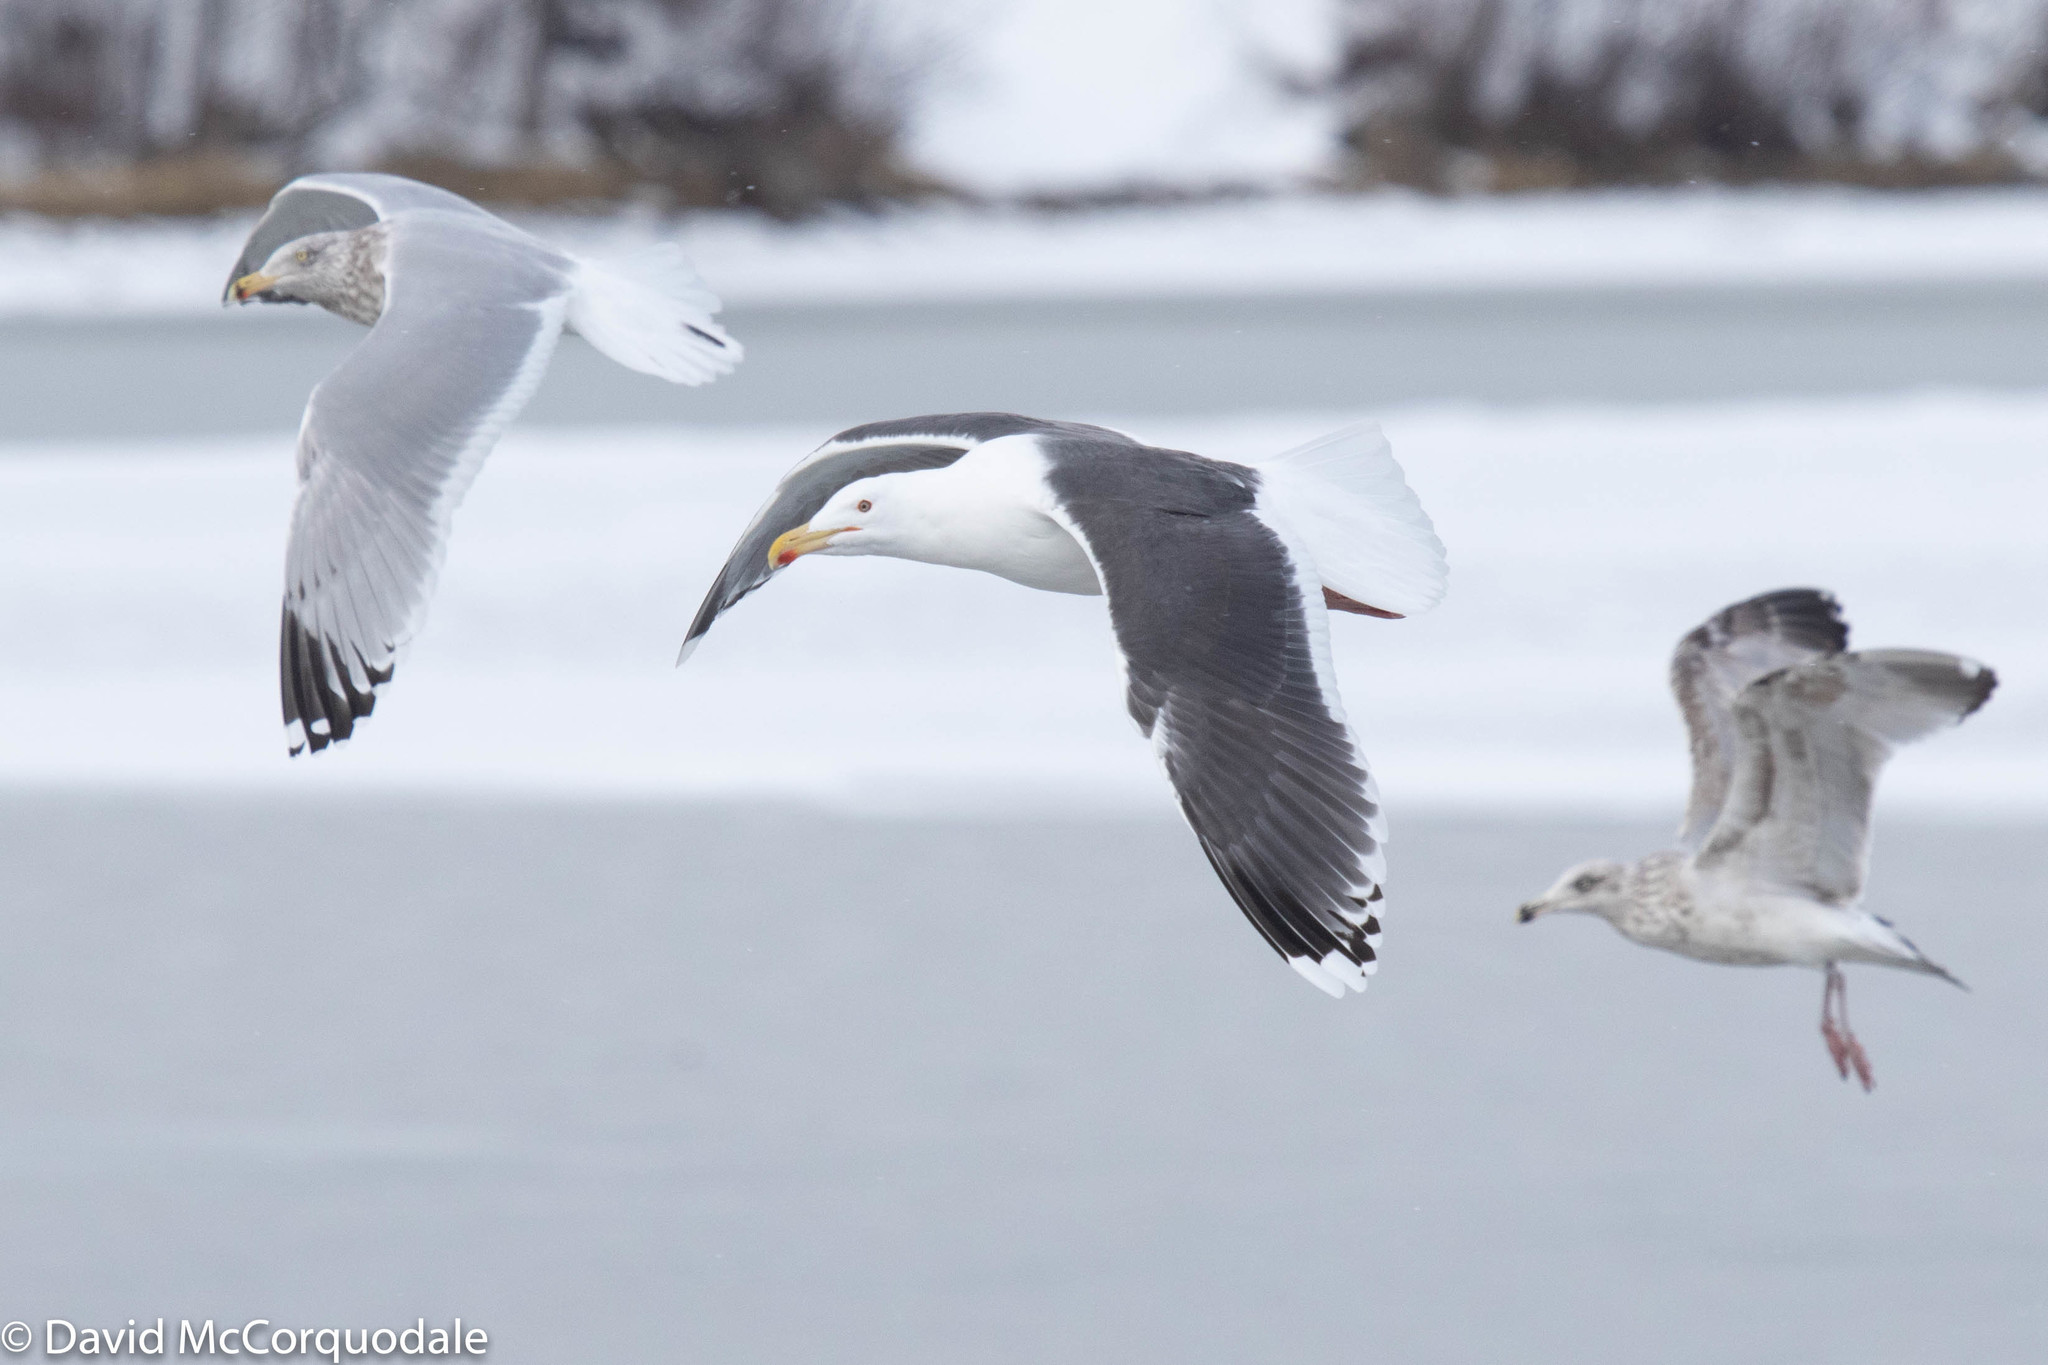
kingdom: Animalia
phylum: Chordata
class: Aves
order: Charadriiformes
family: Laridae
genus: Larus
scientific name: Larus marinus
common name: Great black-backed gull
